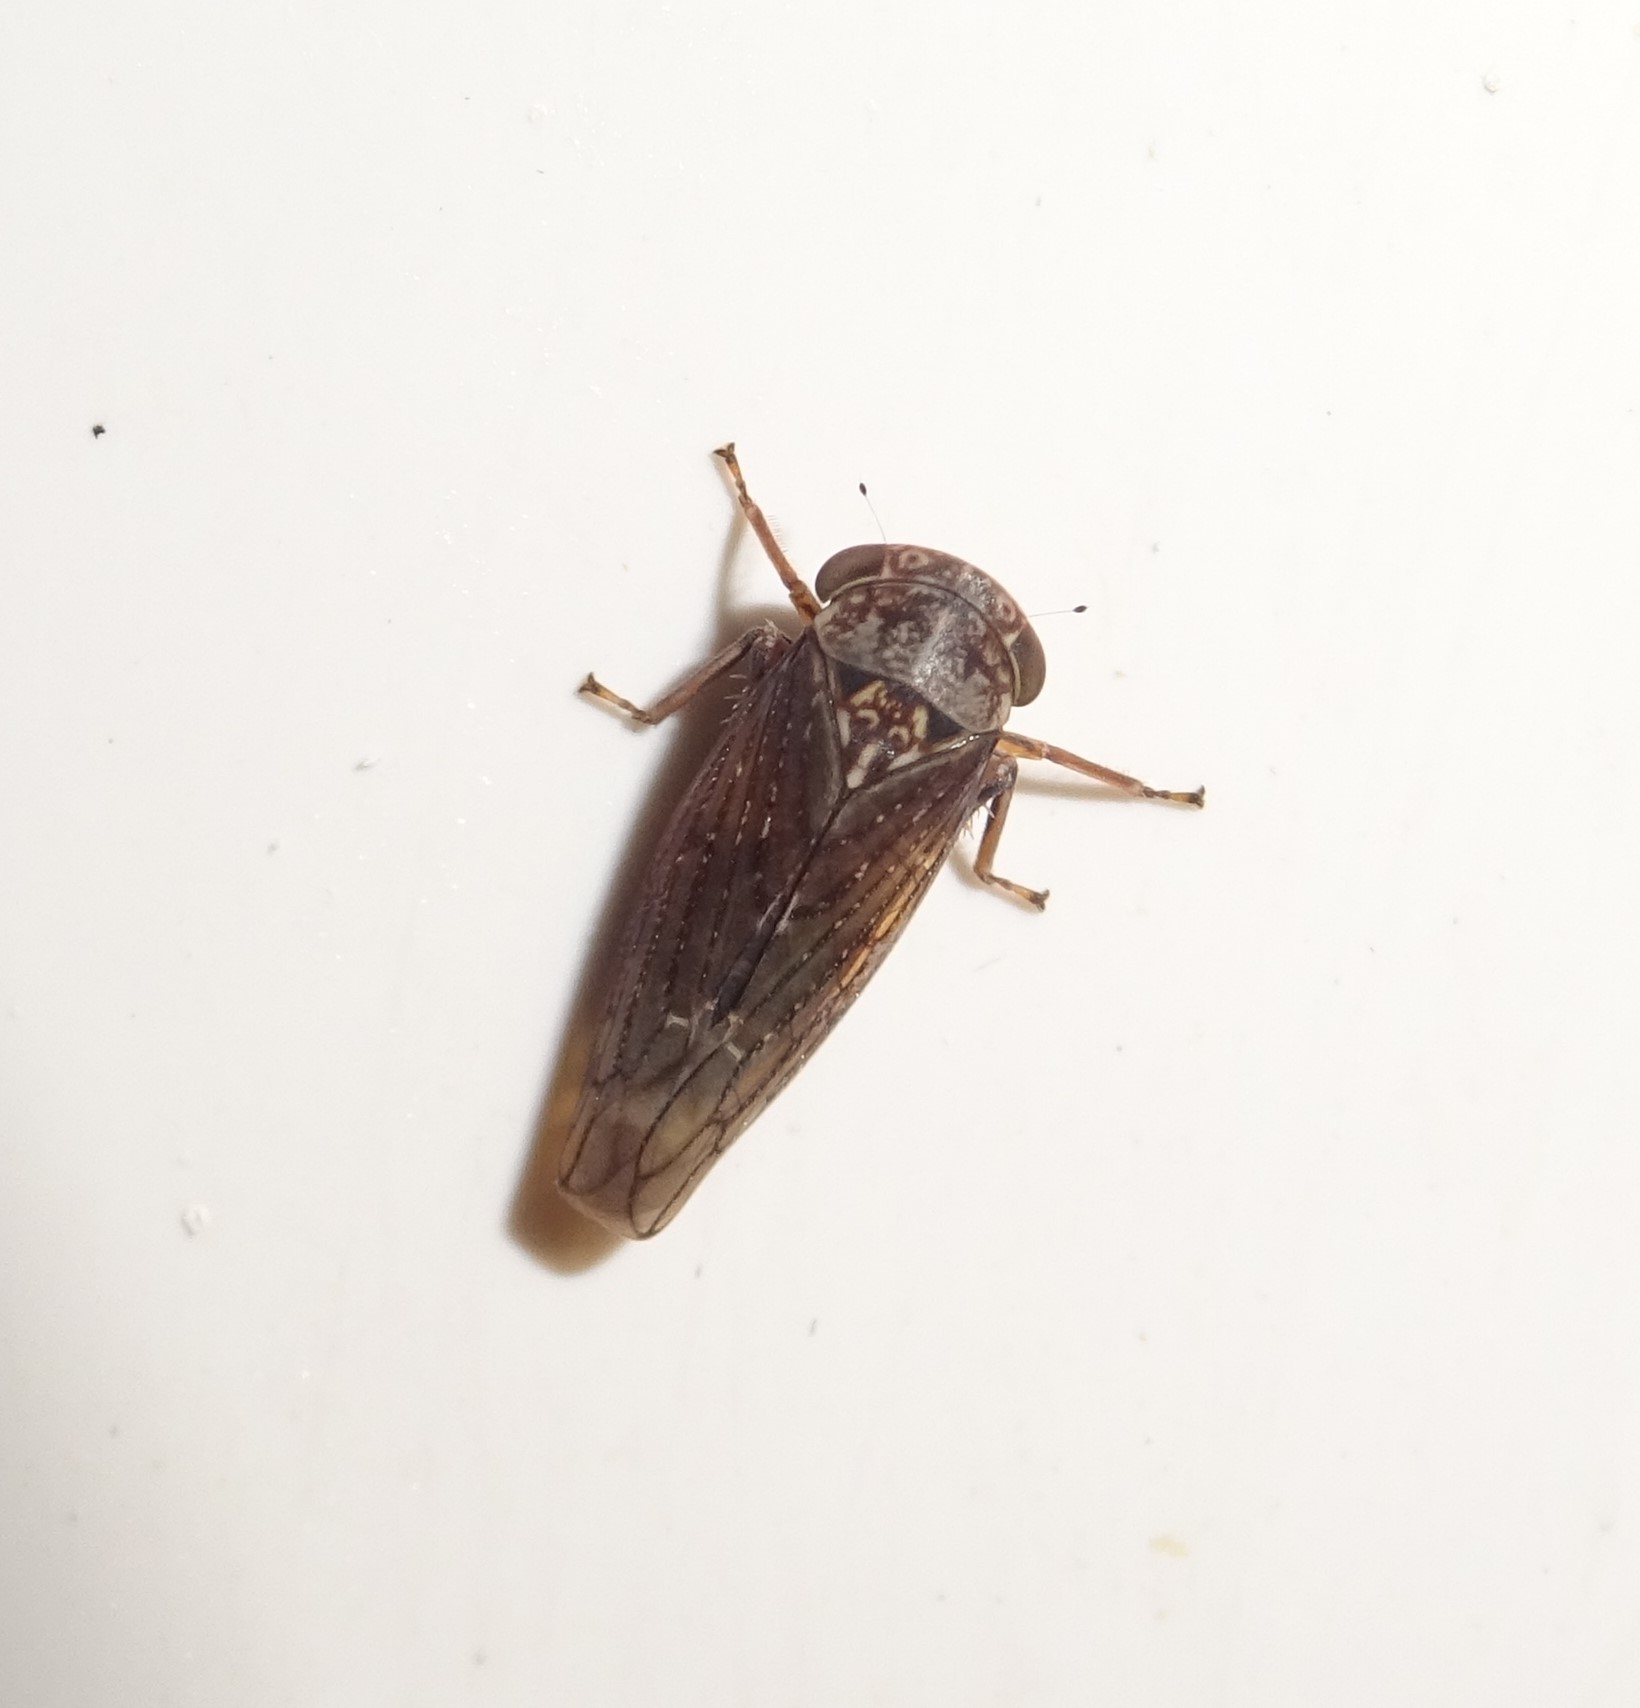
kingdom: Animalia
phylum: Arthropoda
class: Insecta
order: Hemiptera
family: Cicadellidae
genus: Acericerus
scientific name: Acericerus ribauti
